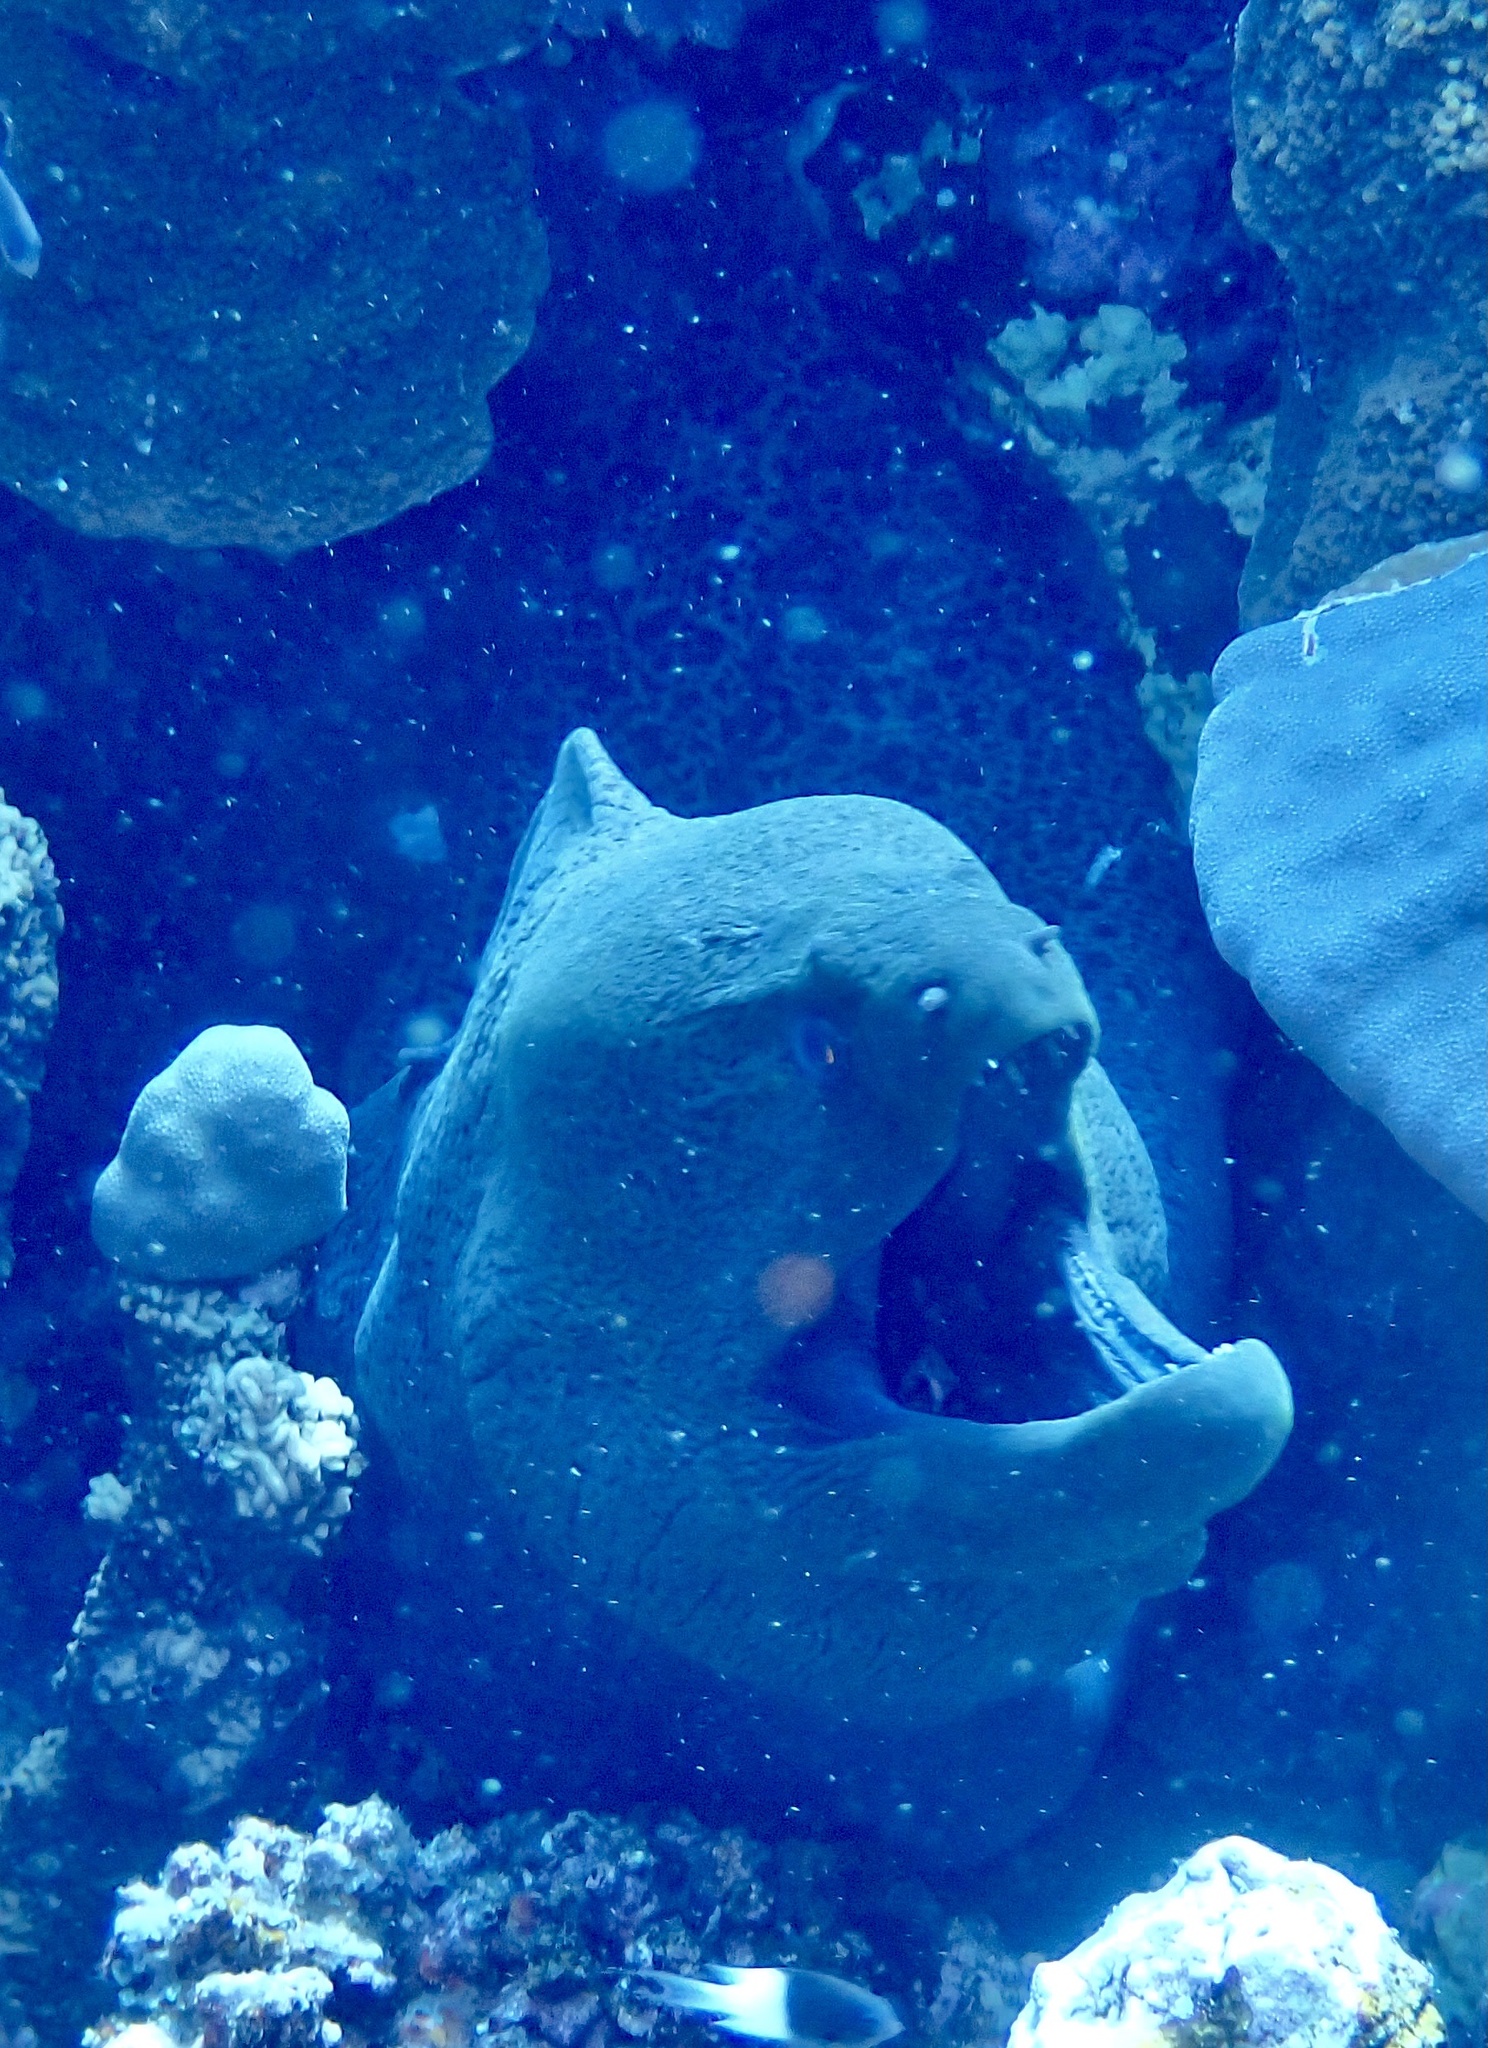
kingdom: Animalia
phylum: Chordata
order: Anguilliformes
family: Muraenidae
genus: Gymnothorax
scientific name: Gymnothorax javanicus
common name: Giant moray
